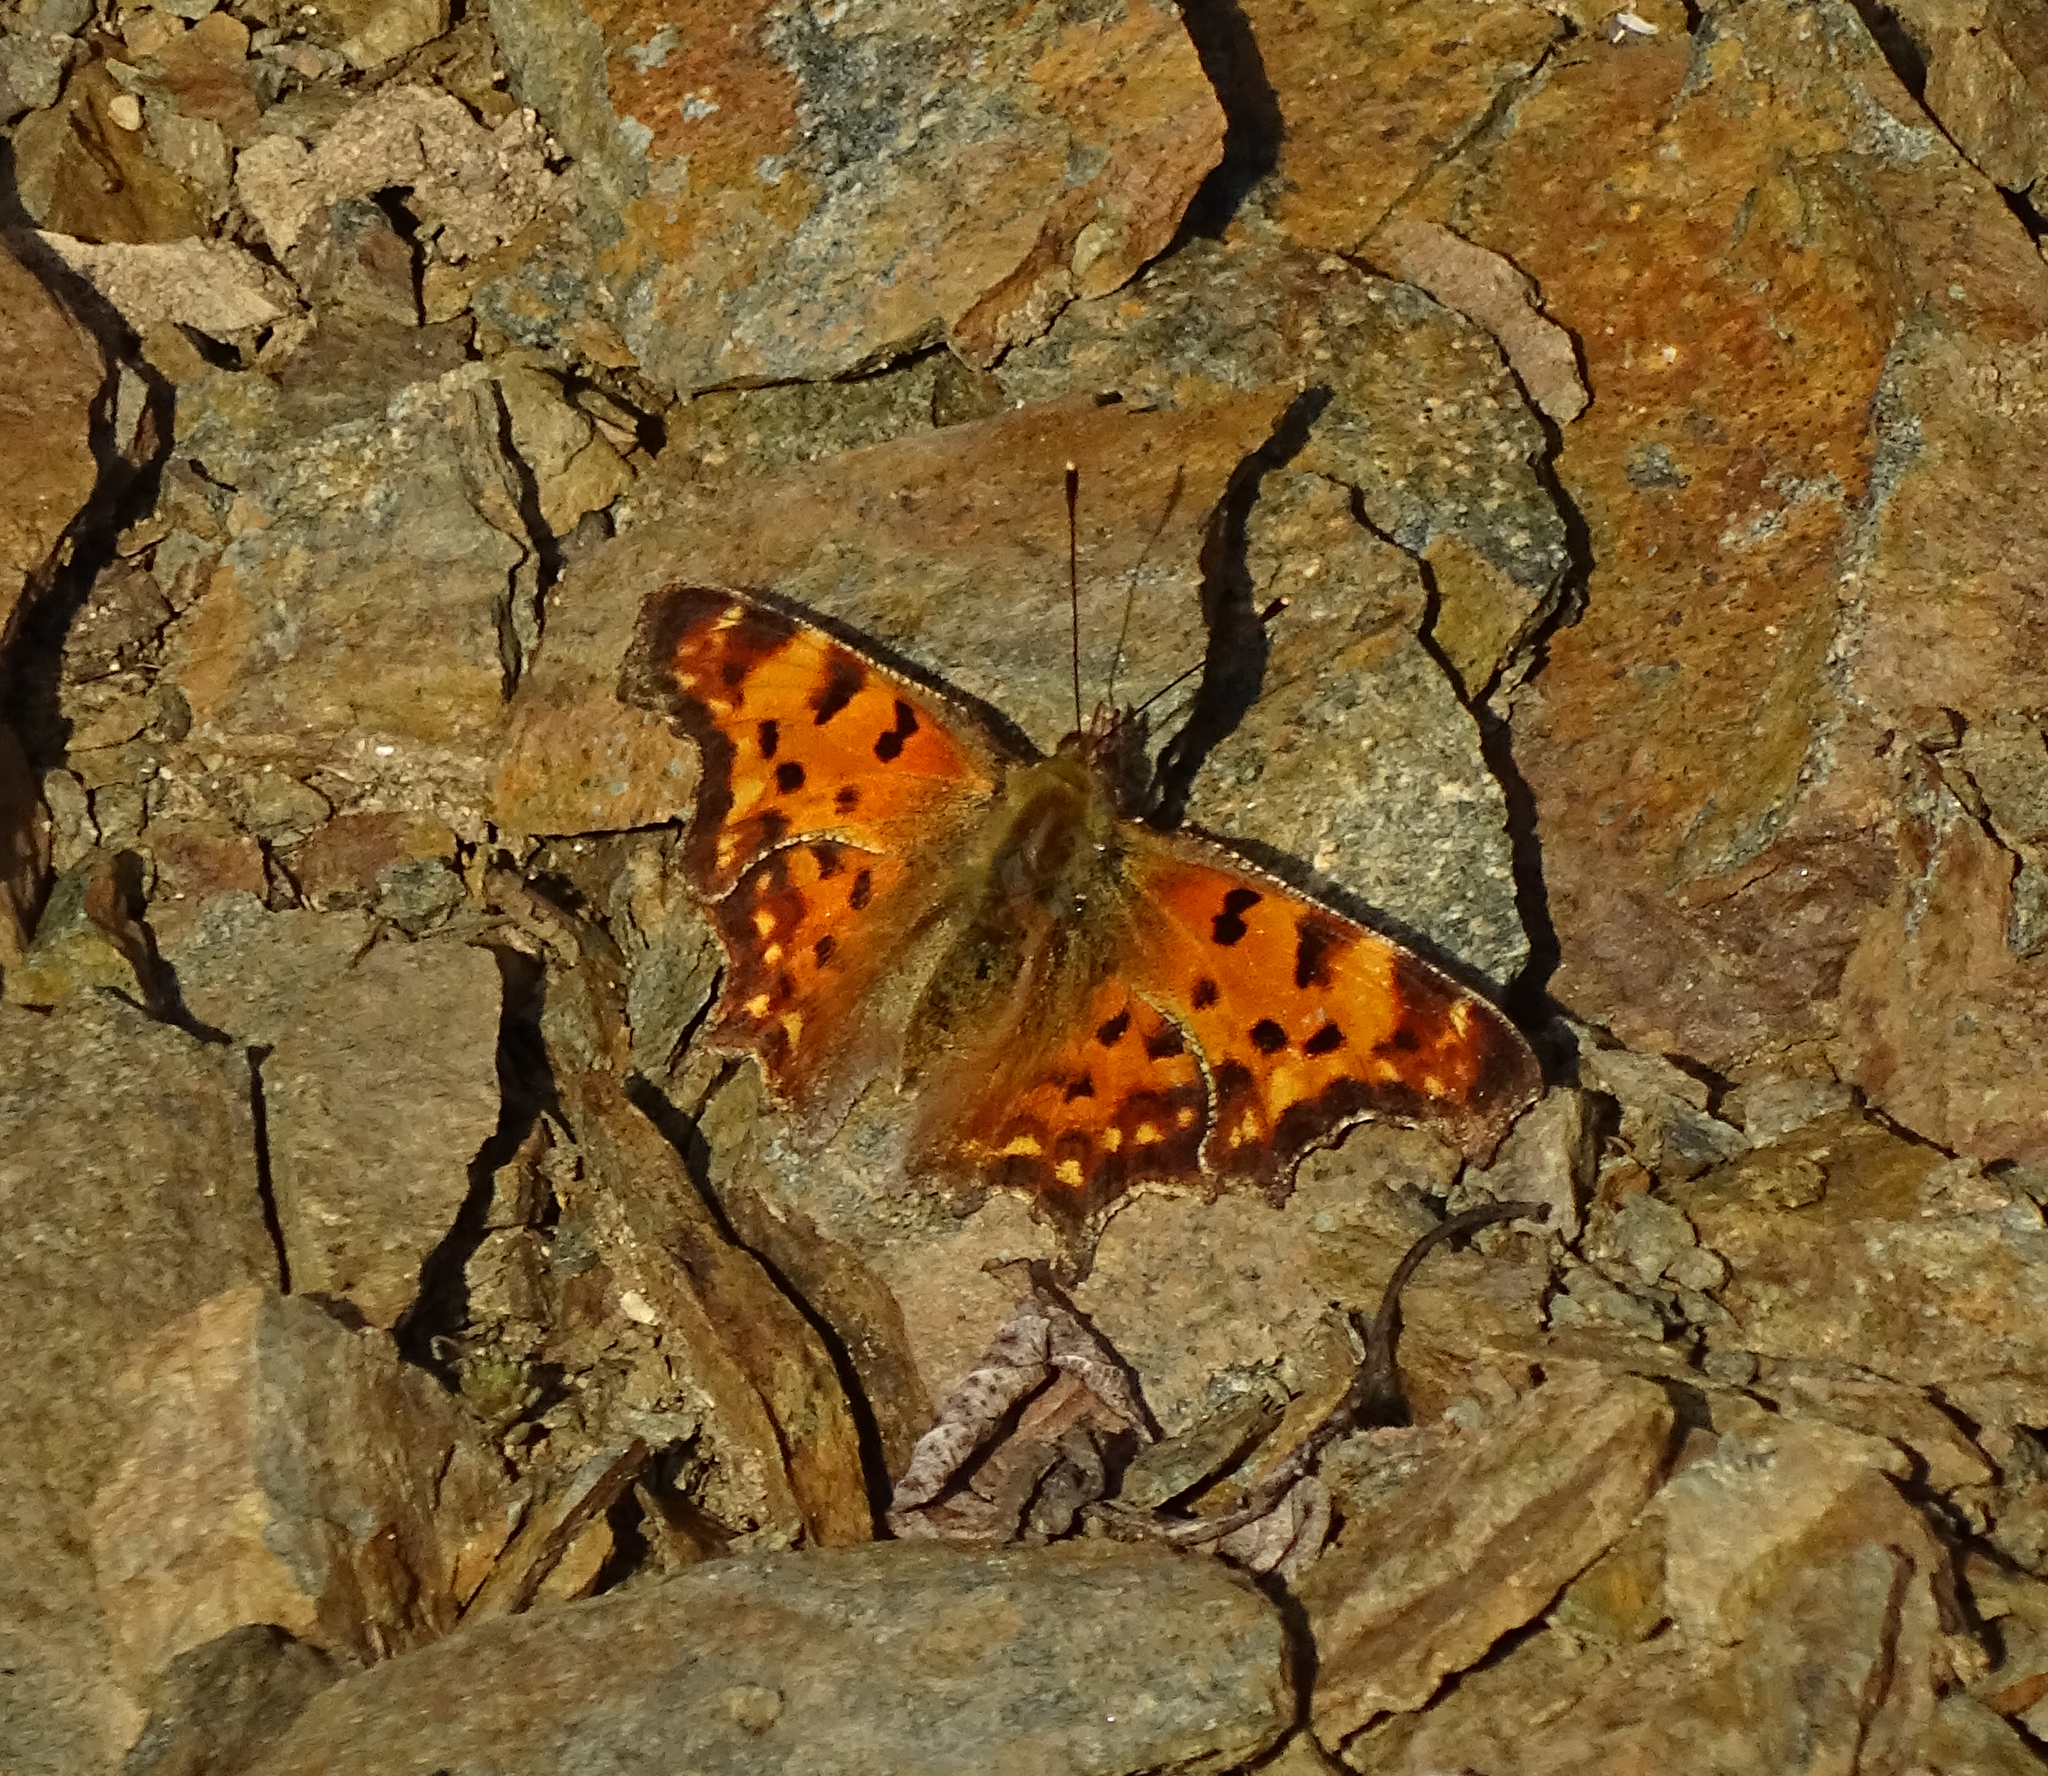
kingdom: Animalia
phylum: Arthropoda
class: Insecta
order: Lepidoptera
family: Nymphalidae
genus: Polygonia
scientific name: Polygonia c-album
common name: Comma
